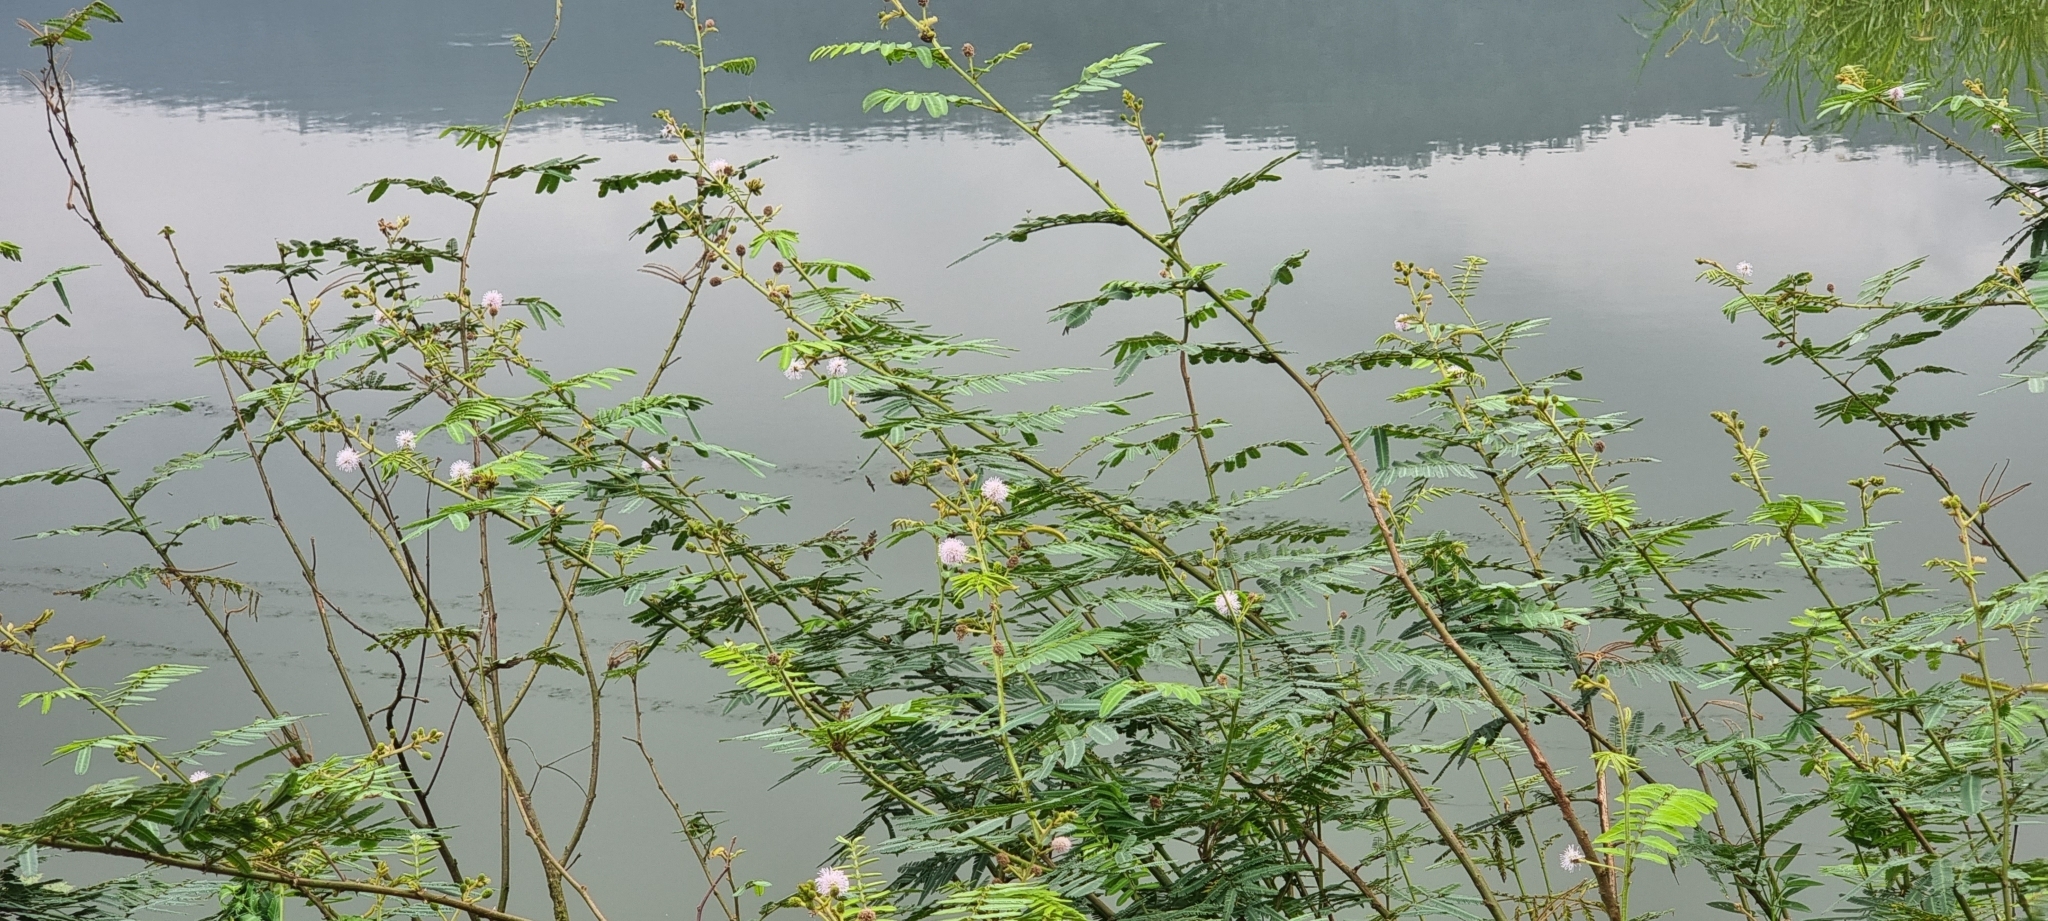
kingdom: Plantae
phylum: Tracheophyta
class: Magnoliopsida
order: Fabales
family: Fabaceae
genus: Mimosa
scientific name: Mimosa pigra
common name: Black mimosa
